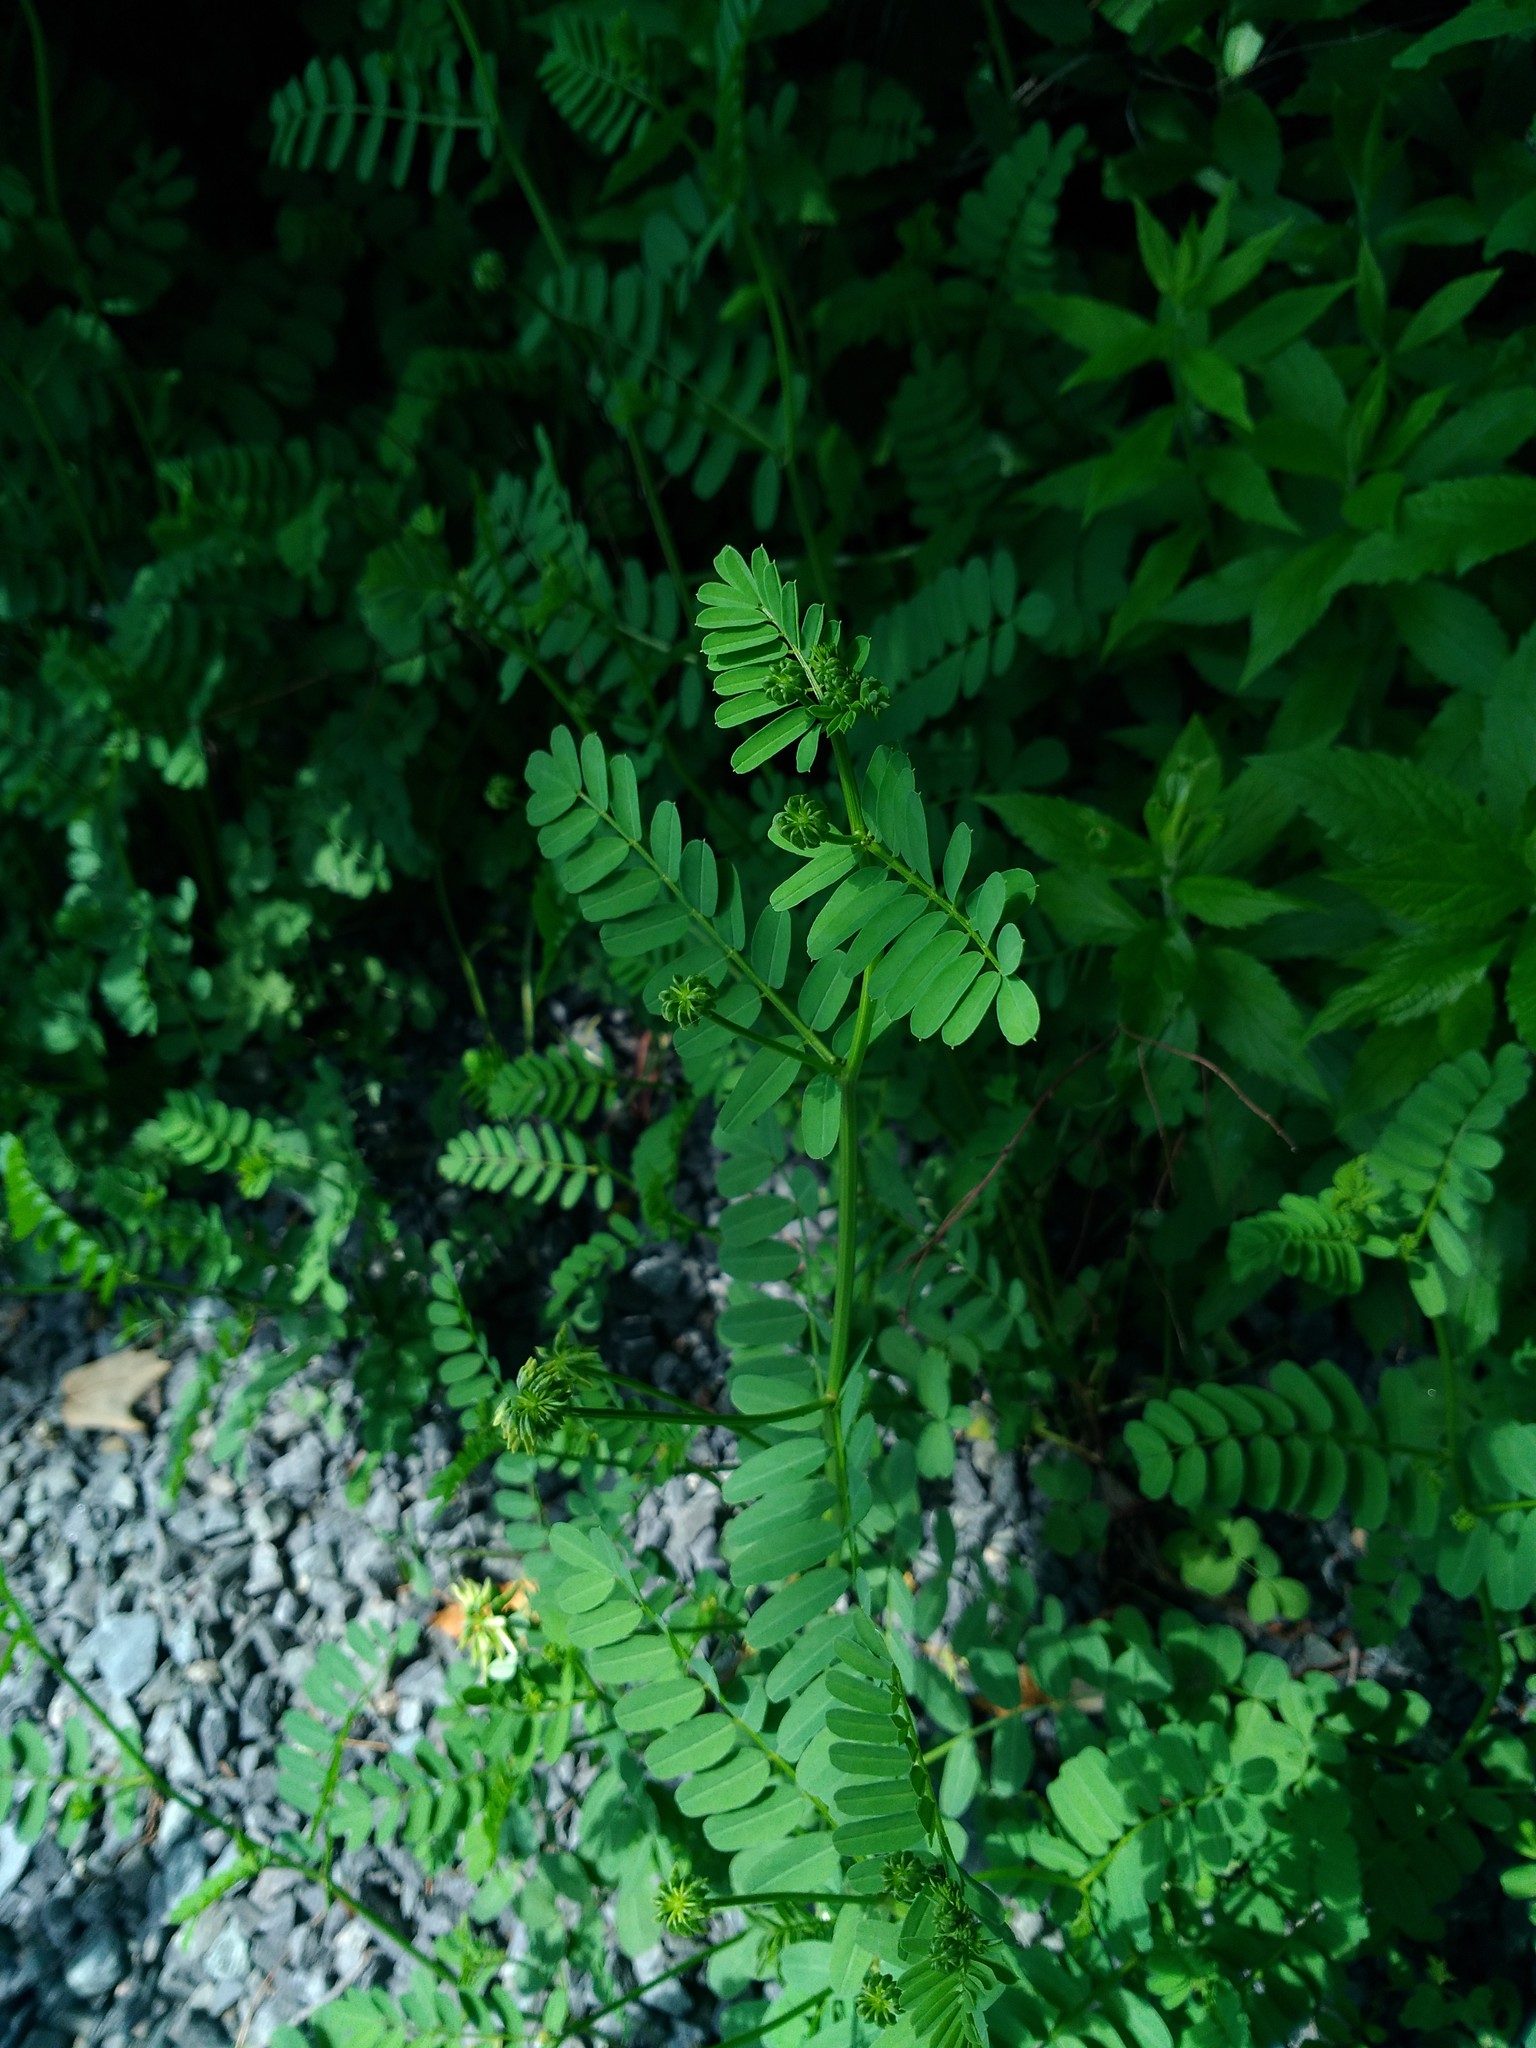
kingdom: Plantae
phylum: Tracheophyta
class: Magnoliopsida
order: Fabales
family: Fabaceae
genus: Coronilla
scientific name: Coronilla varia
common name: Crownvetch
